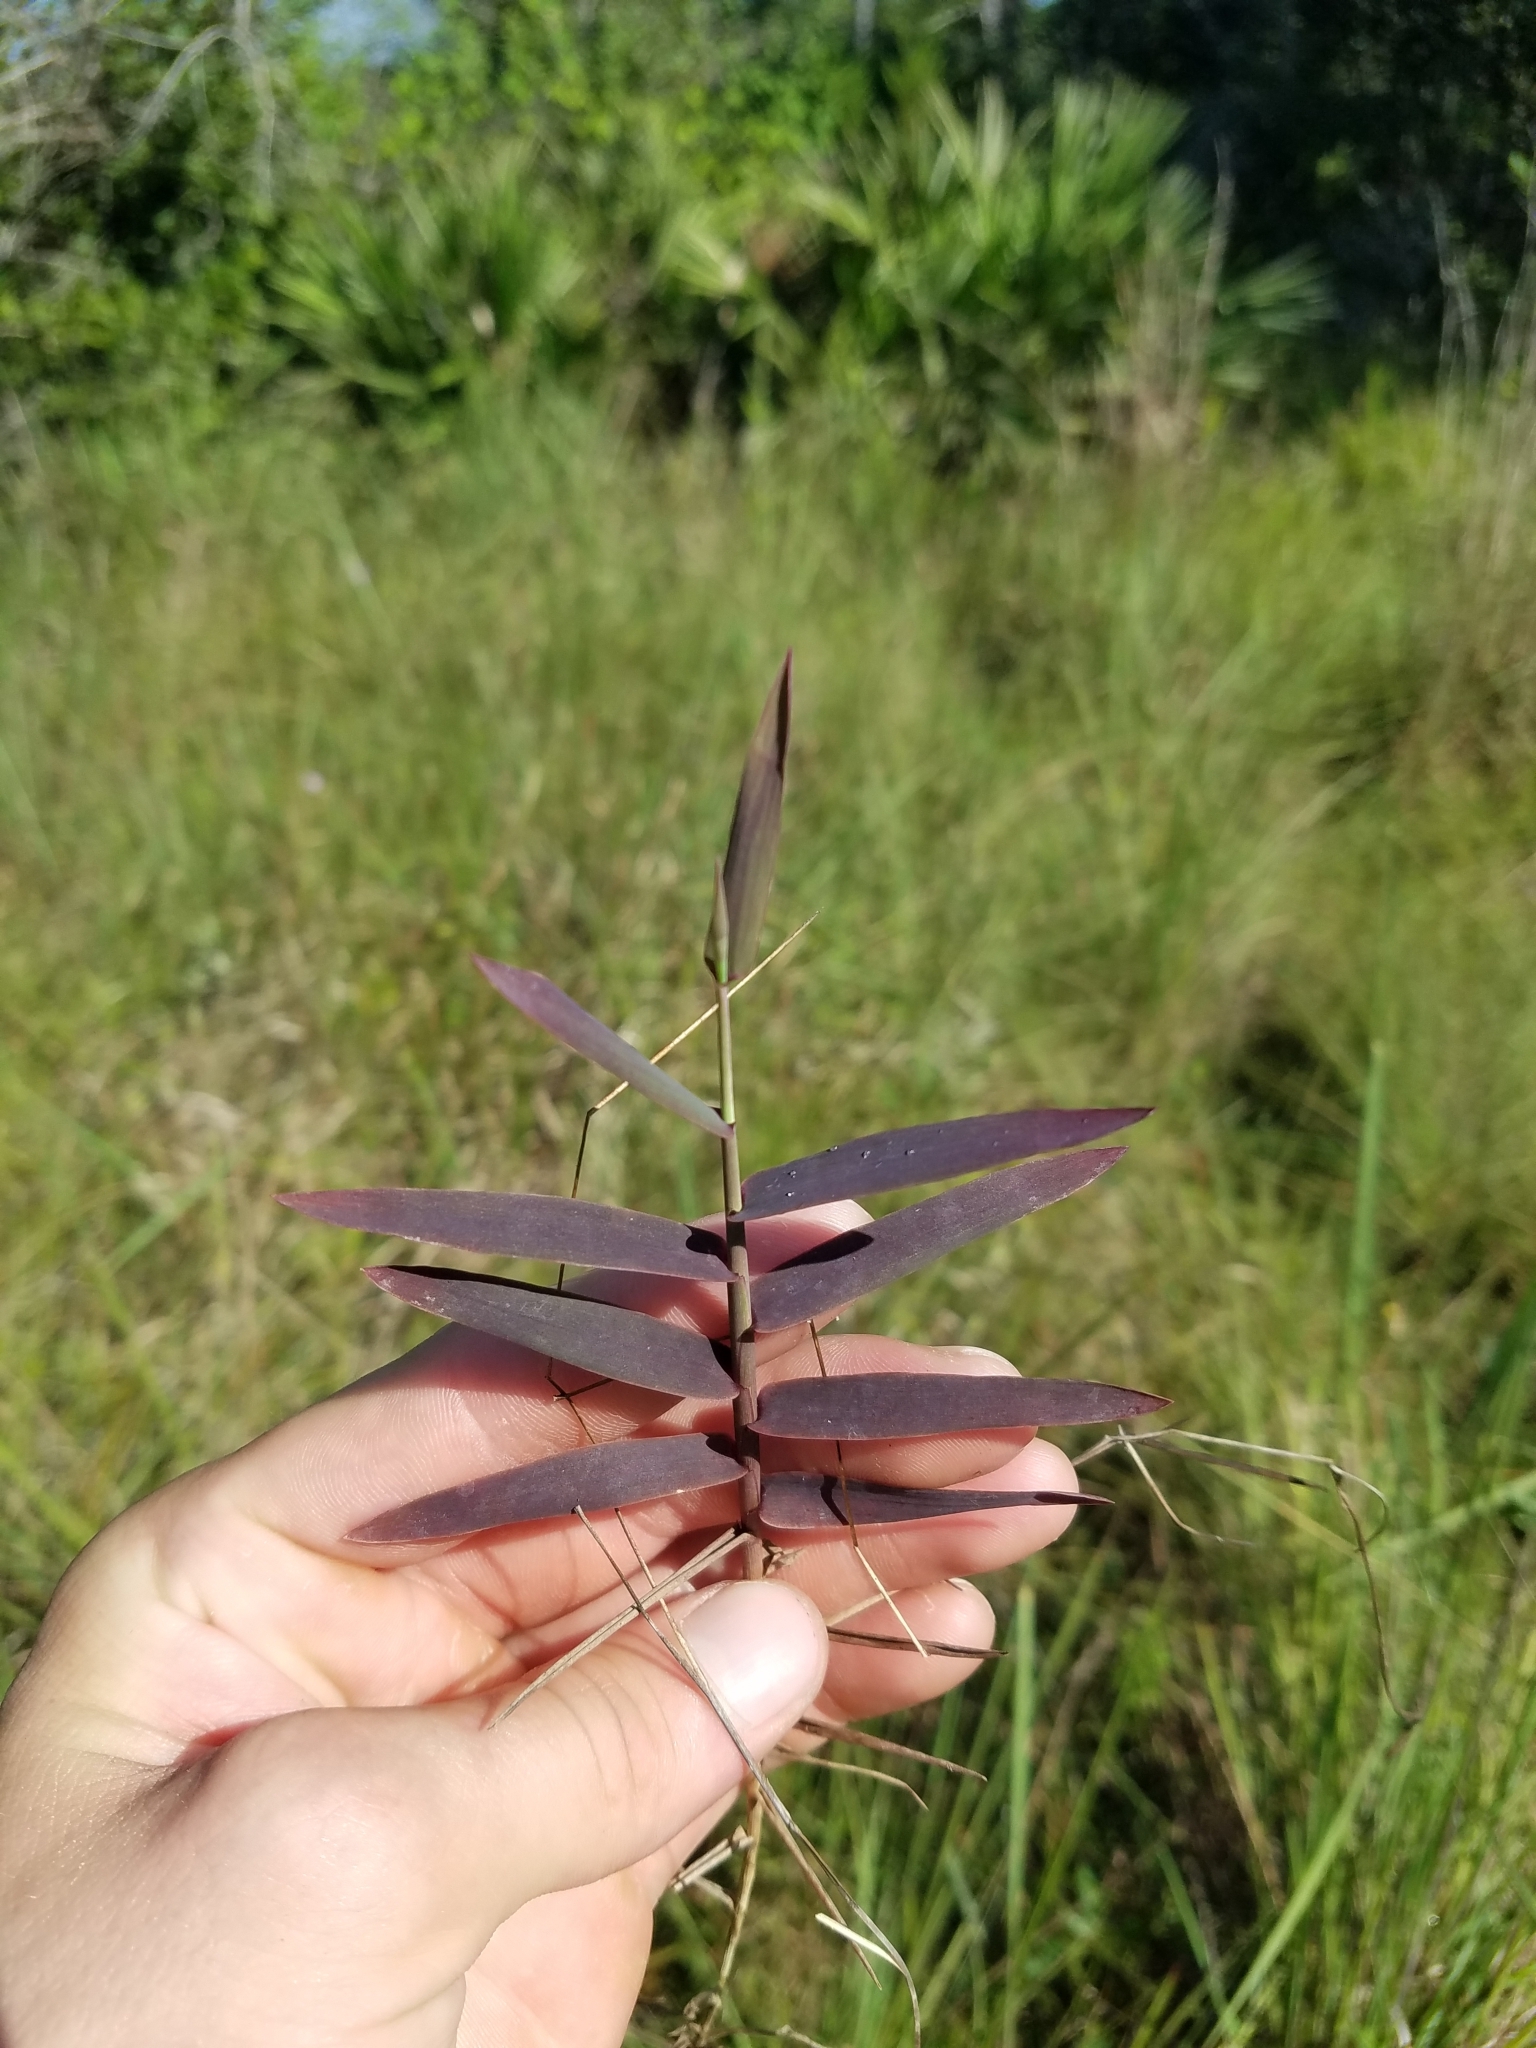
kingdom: Plantae
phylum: Tracheophyta
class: Liliopsida
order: Poales
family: Poaceae
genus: Gymnopogon
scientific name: Gymnopogon chapmanianus
